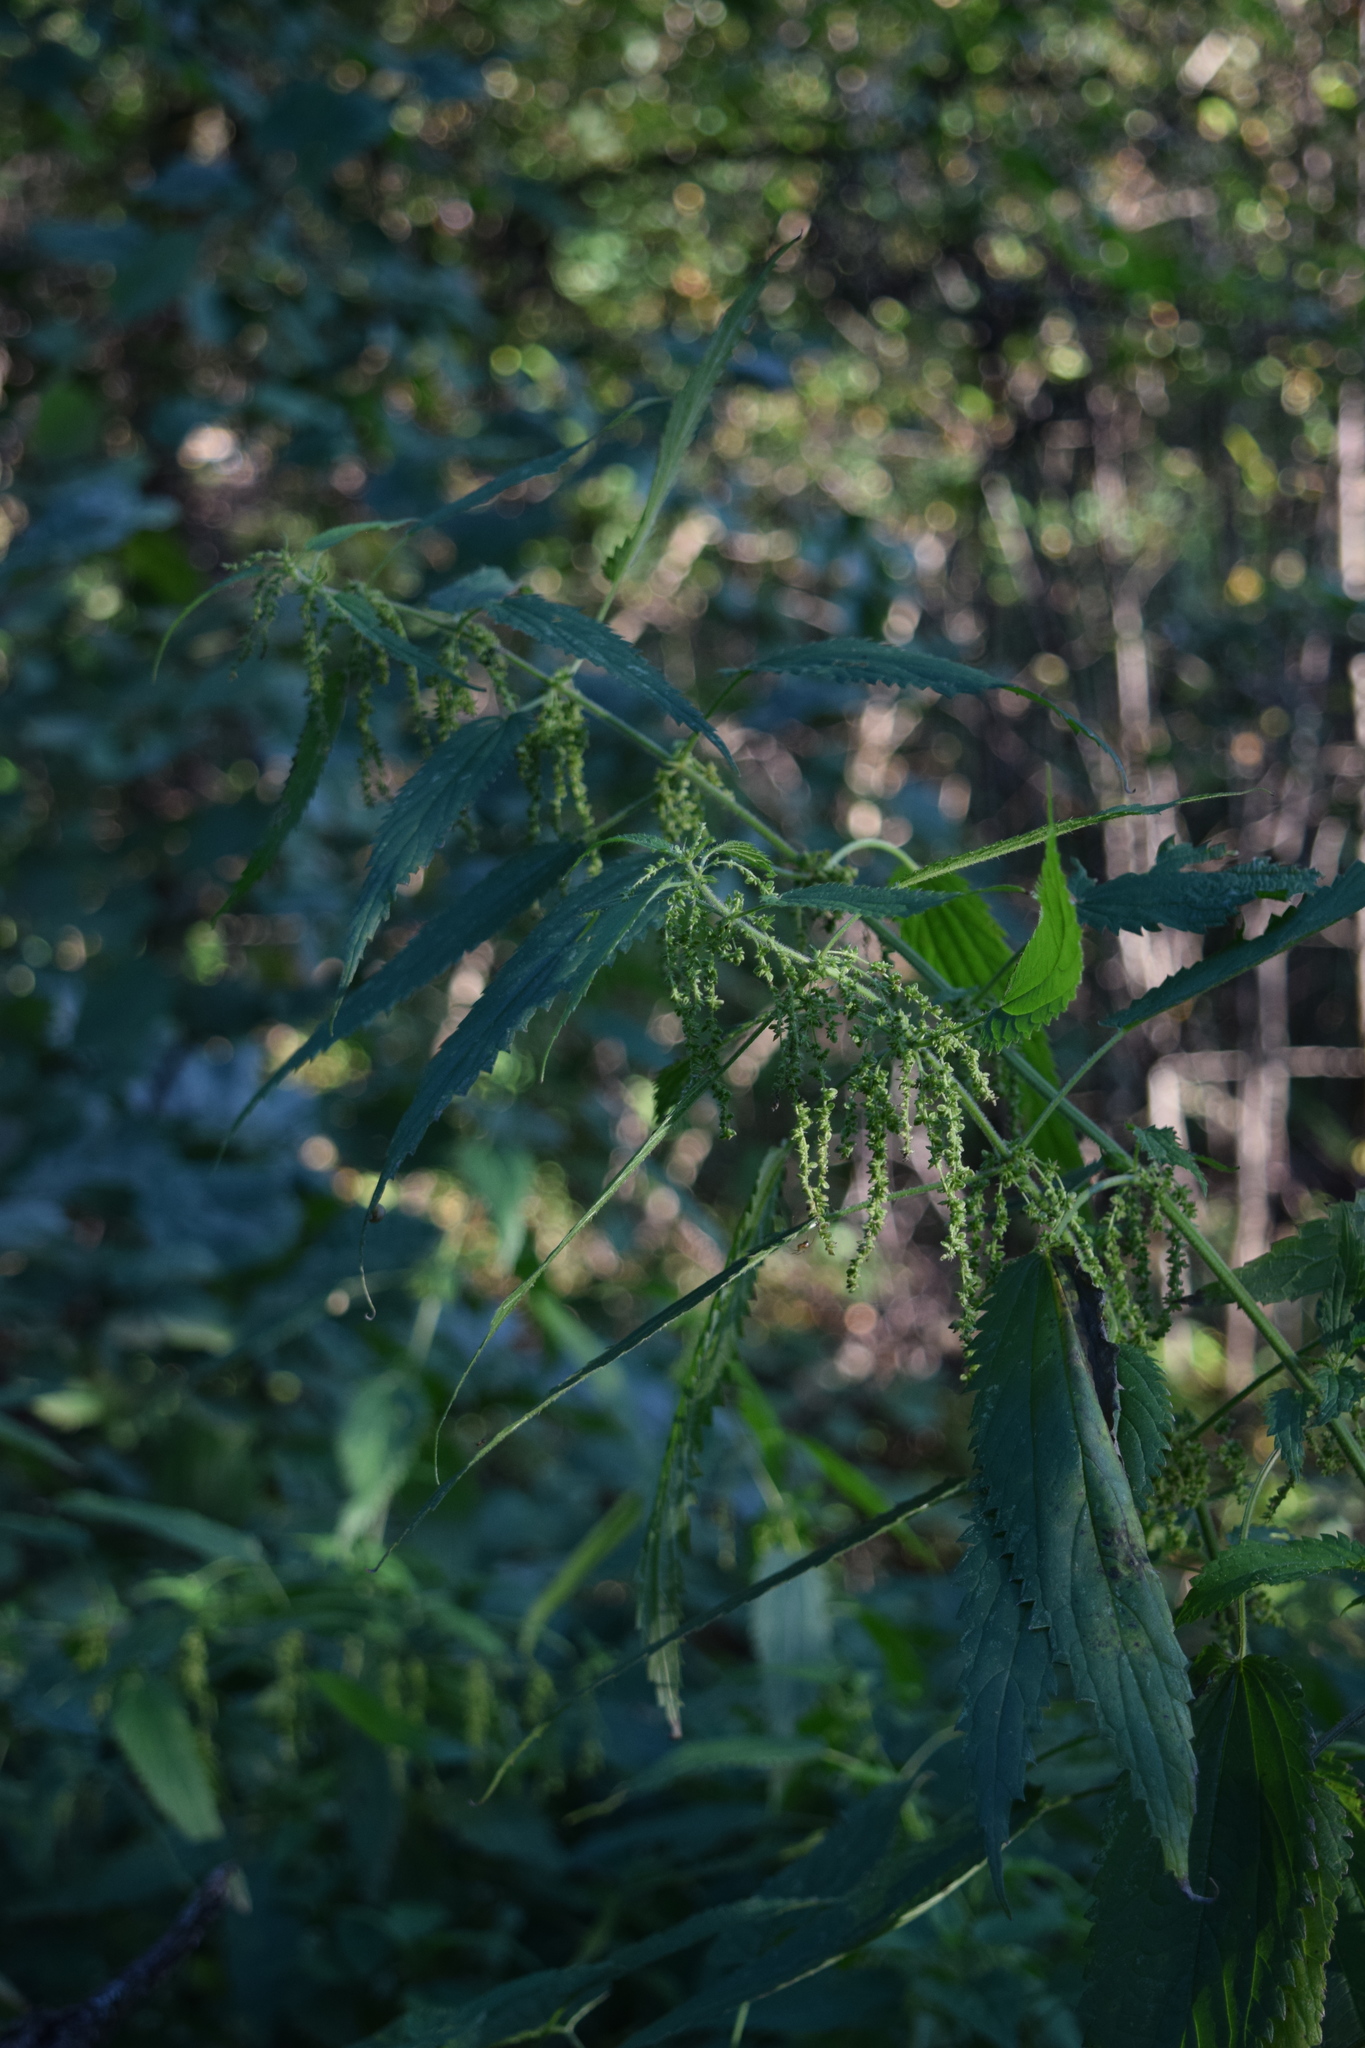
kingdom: Plantae
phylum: Tracheophyta
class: Magnoliopsida
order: Rosales
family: Urticaceae
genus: Urtica
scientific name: Urtica dioica
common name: Common nettle
